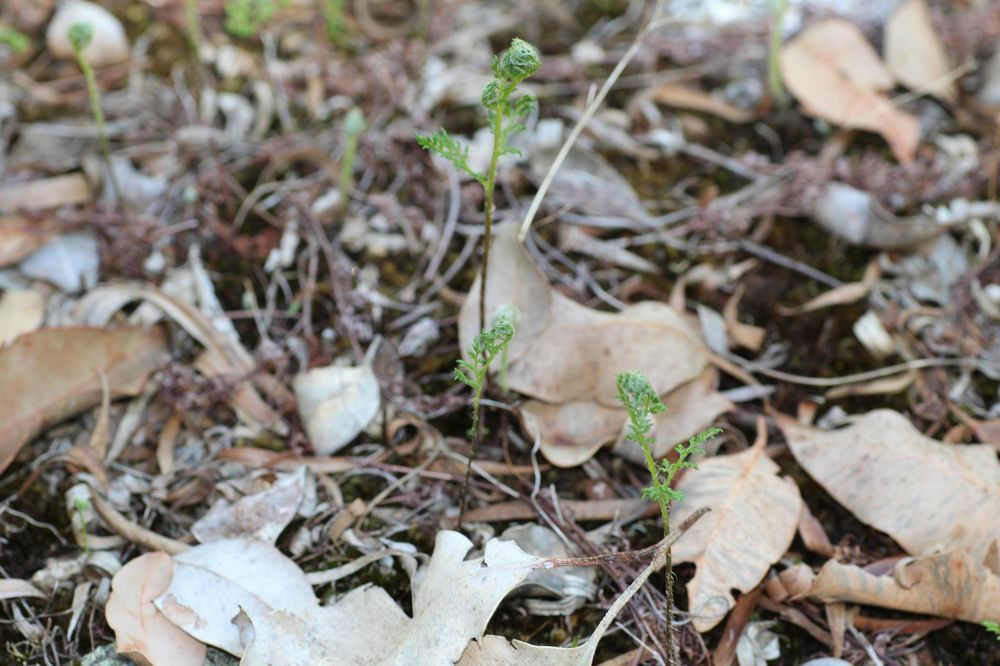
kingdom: Plantae
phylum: Tracheophyta
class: Polypodiopsida
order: Polypodiales
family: Pteridaceae
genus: Cheilanthes
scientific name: Cheilanthes austrotenuifolia
